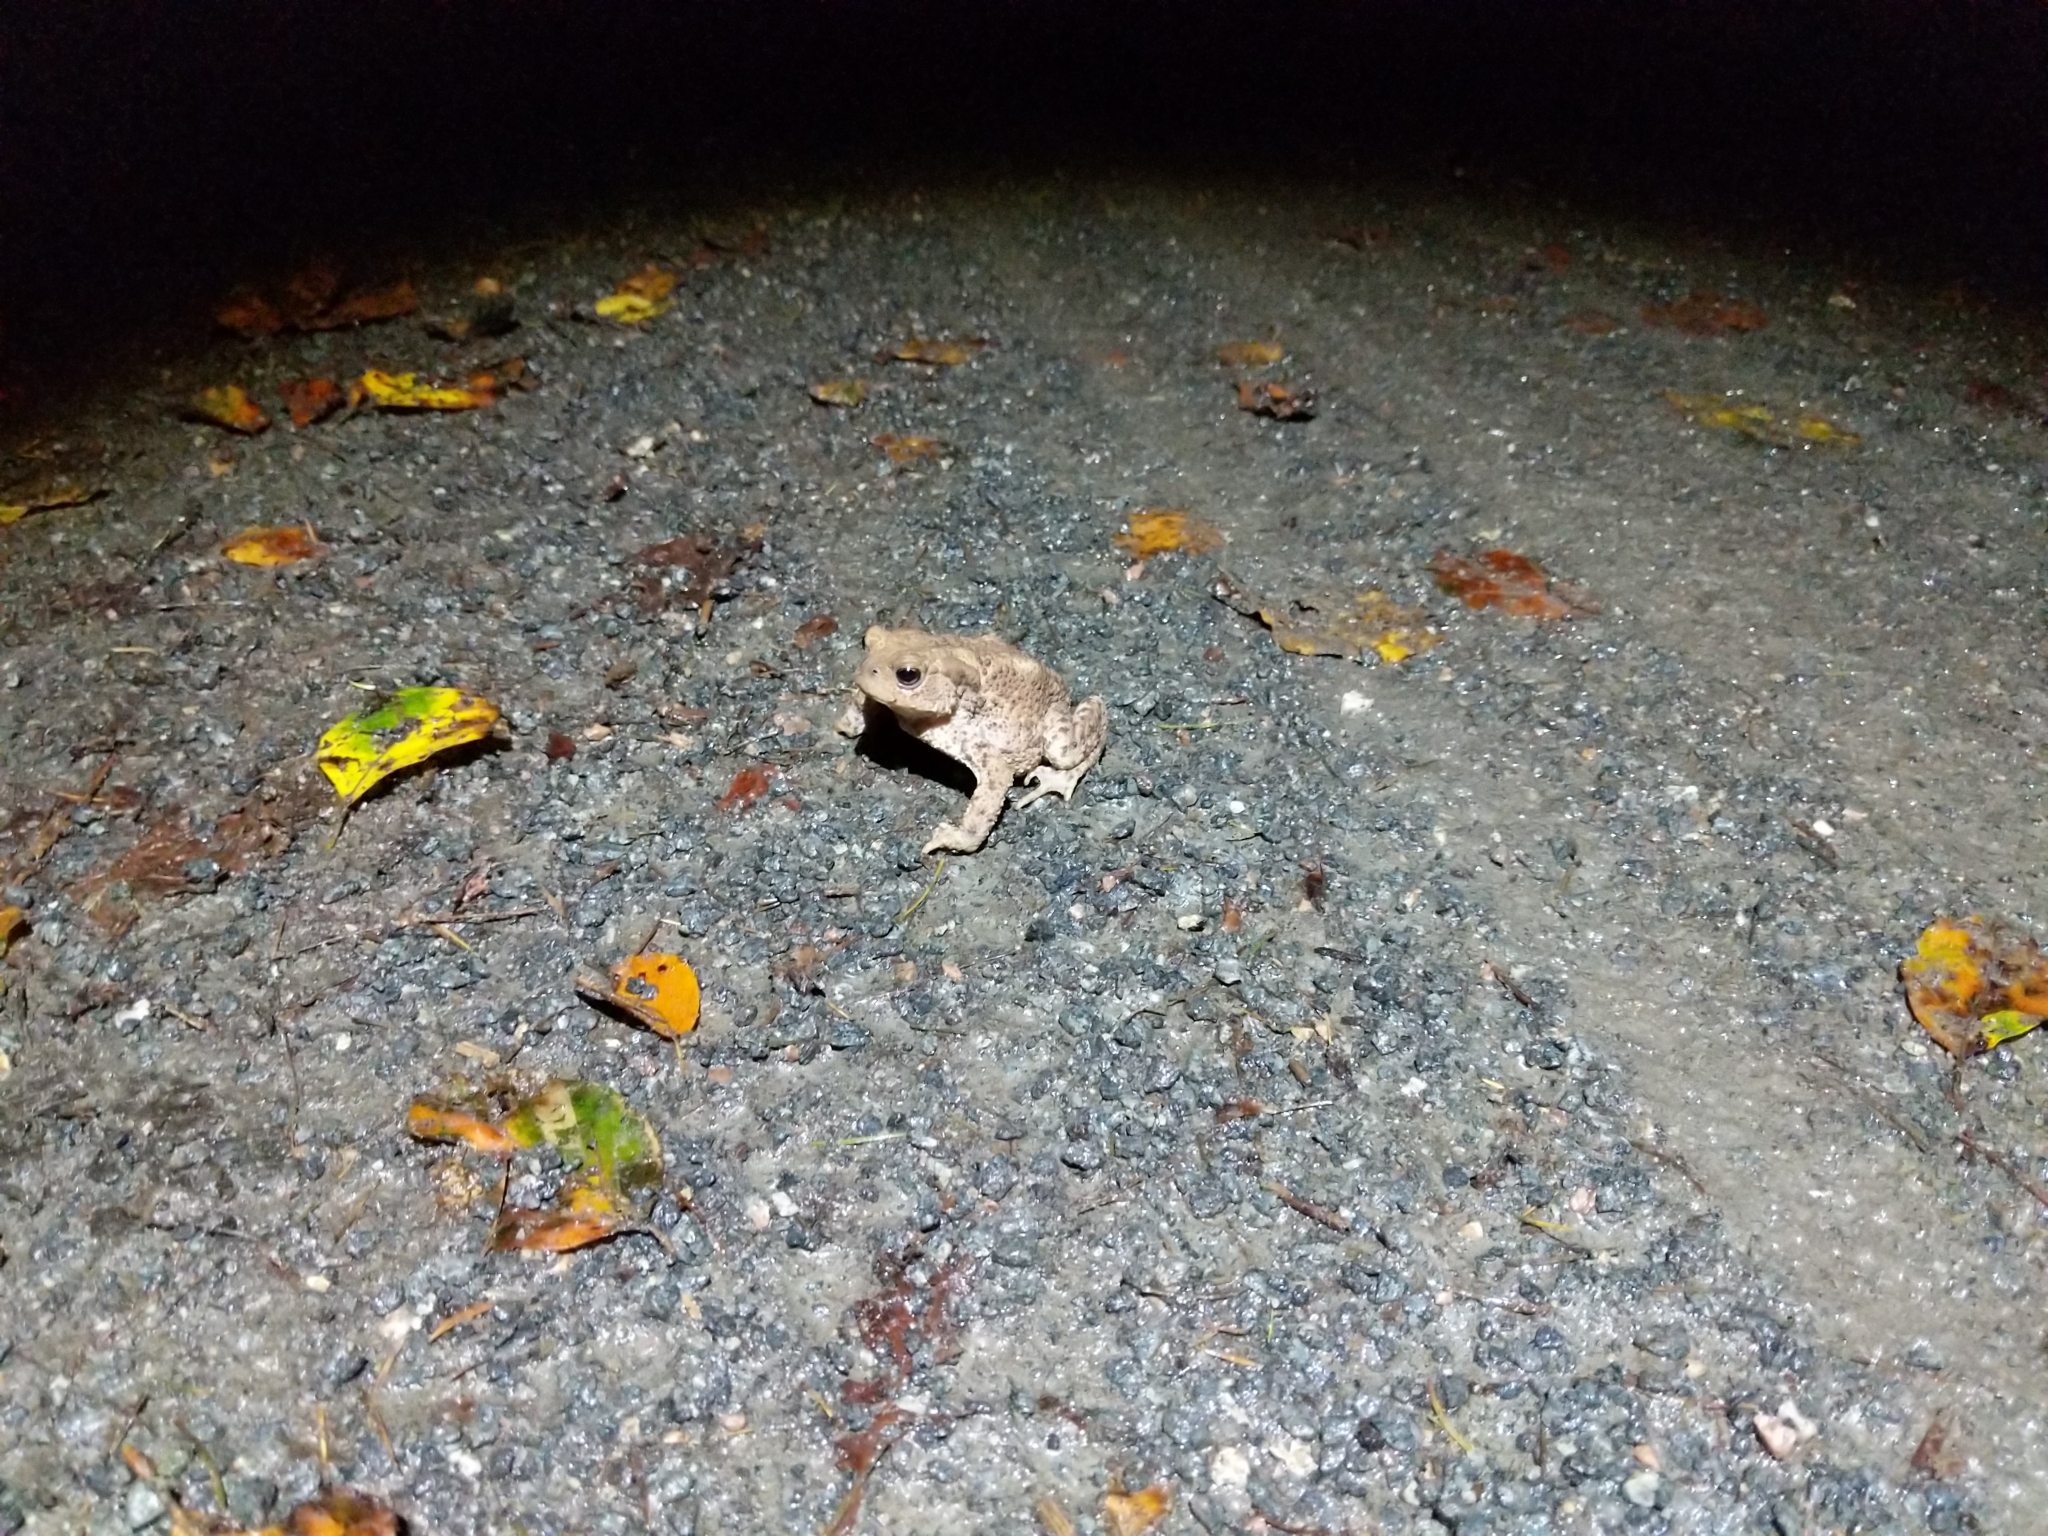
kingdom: Animalia
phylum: Chordata
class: Amphibia
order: Anura
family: Bufonidae
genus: Bufo
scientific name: Bufo bufo
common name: Common toad
